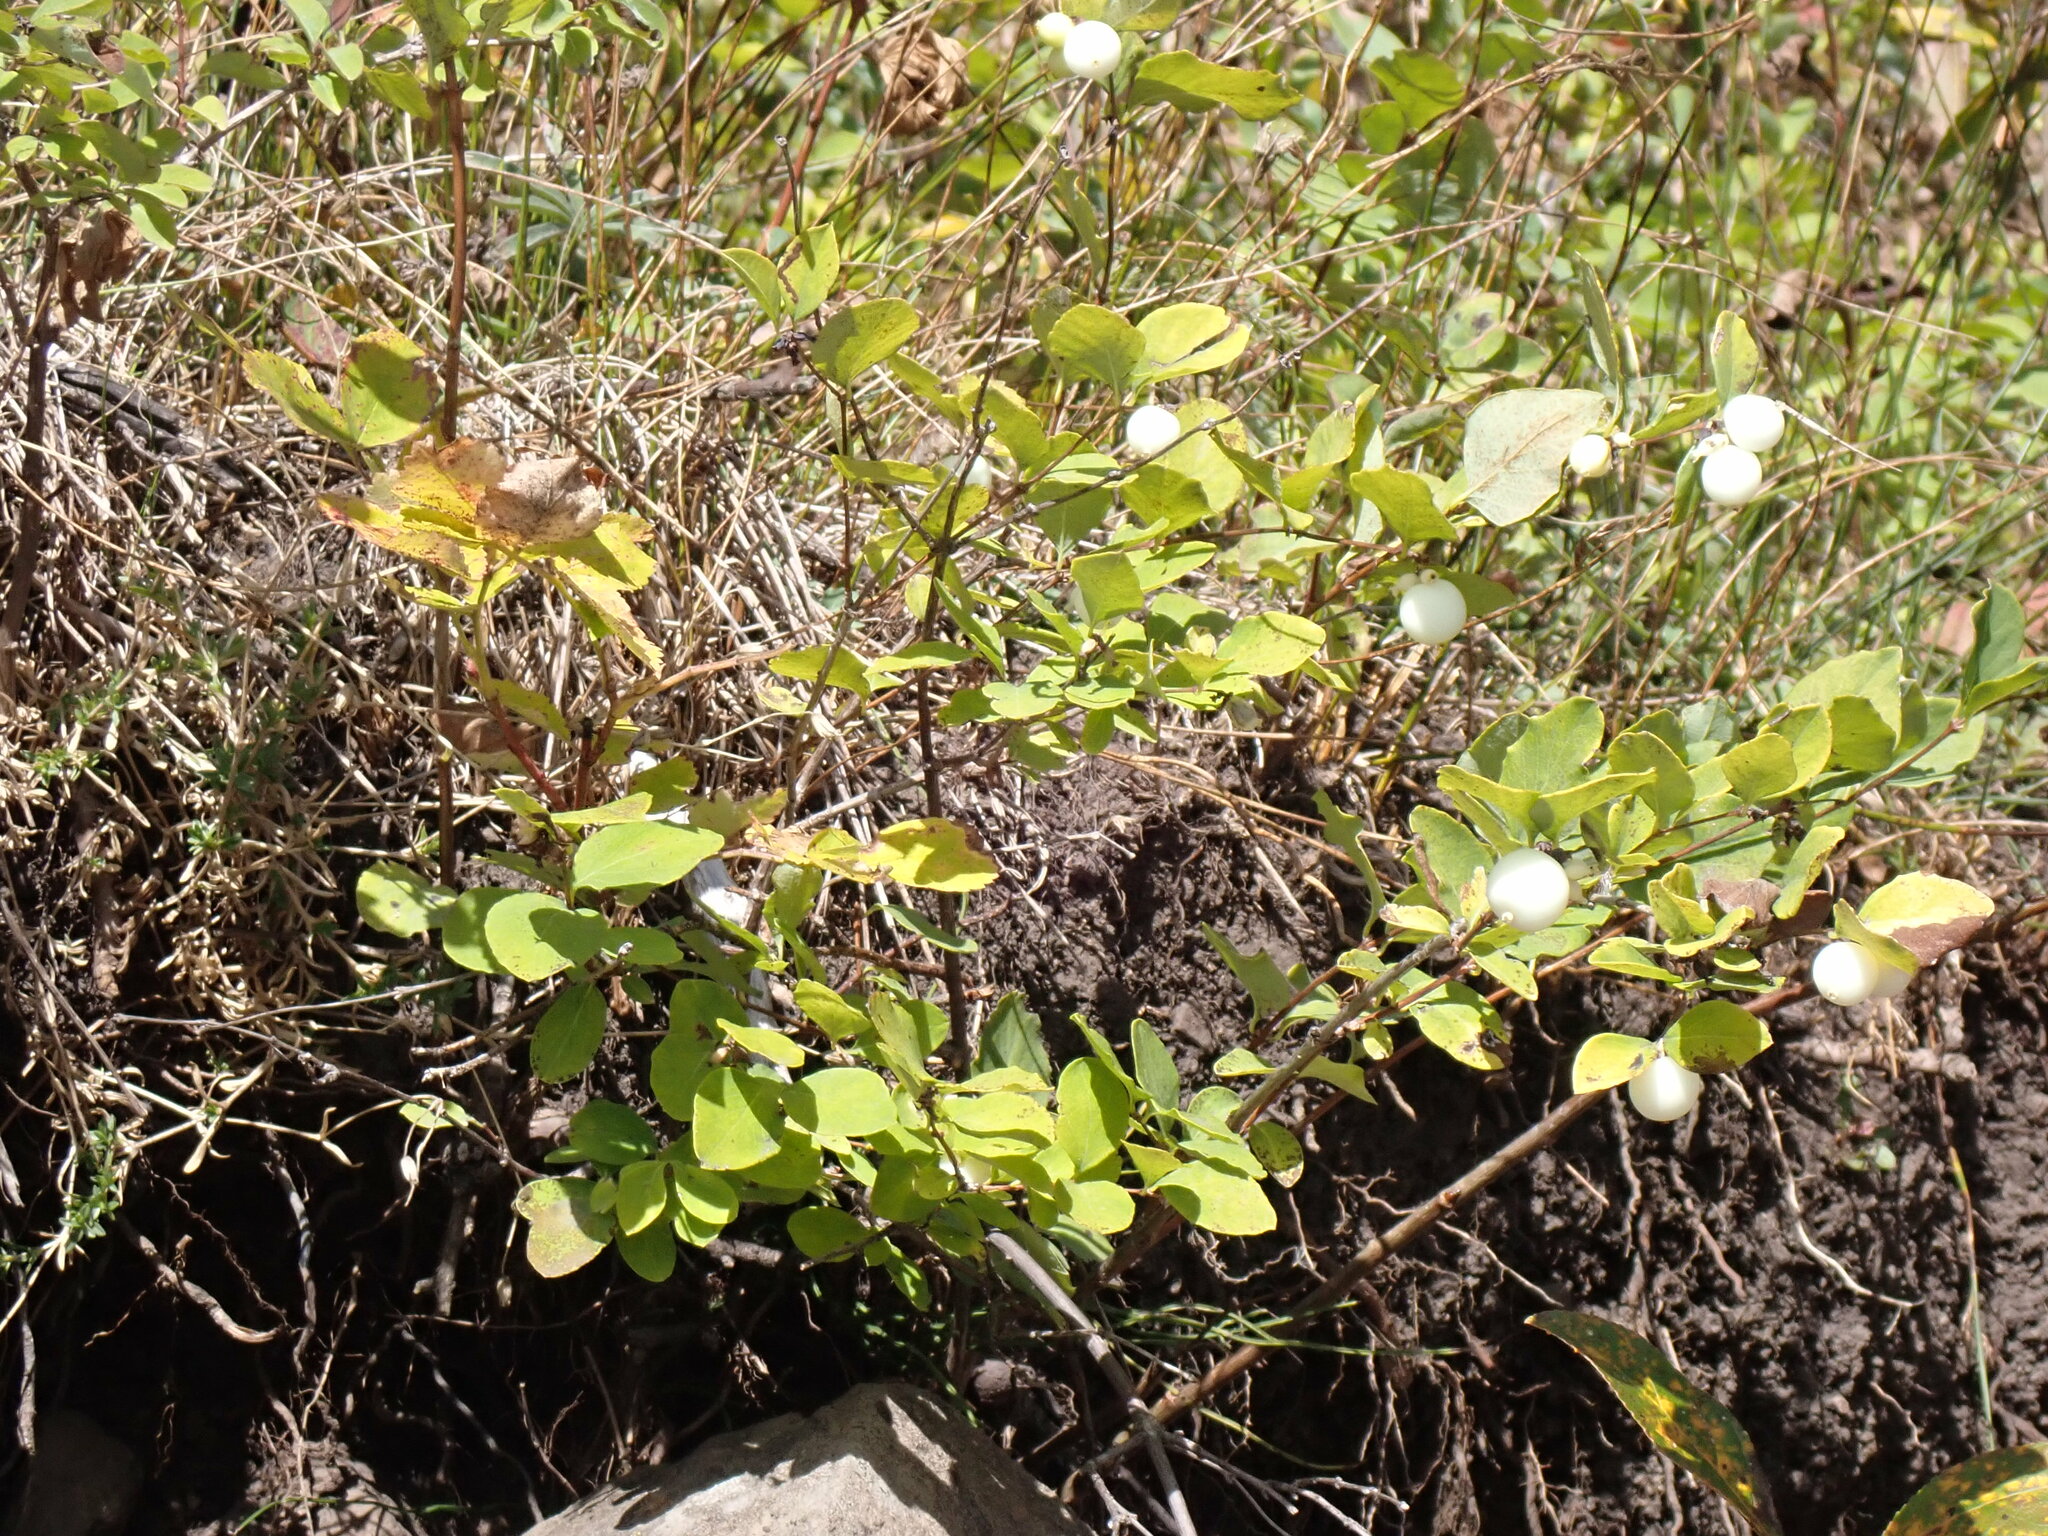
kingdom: Plantae
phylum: Tracheophyta
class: Magnoliopsida
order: Dipsacales
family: Caprifoliaceae
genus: Symphoricarpos
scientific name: Symphoricarpos albus
